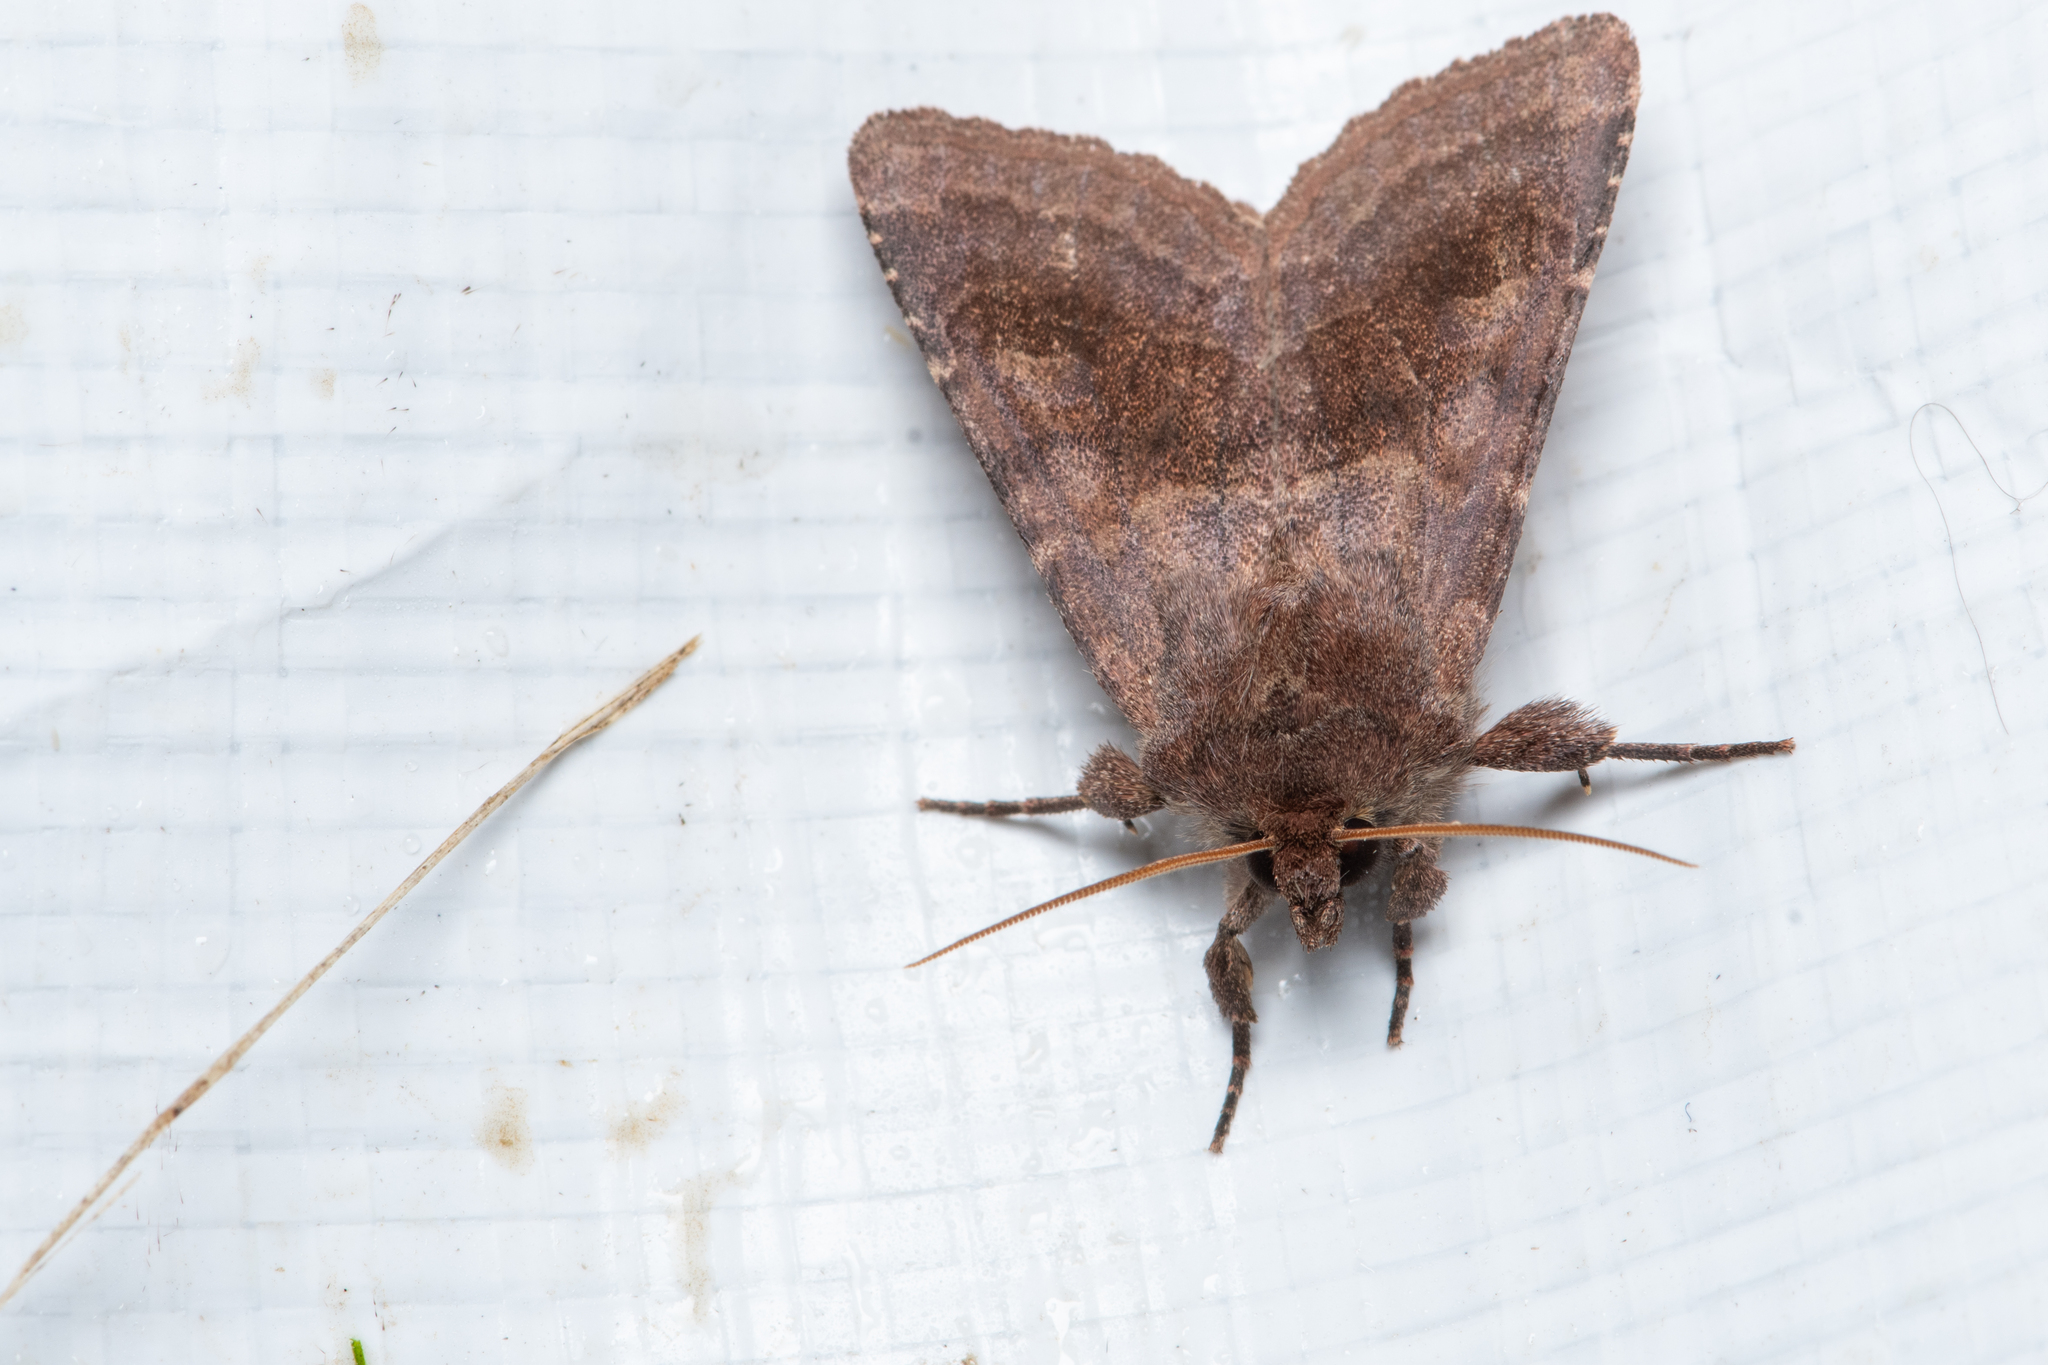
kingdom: Animalia
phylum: Arthropoda
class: Insecta
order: Lepidoptera
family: Noctuidae
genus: Nephelodes
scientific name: Nephelodes minians
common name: Bronzed cutworm
